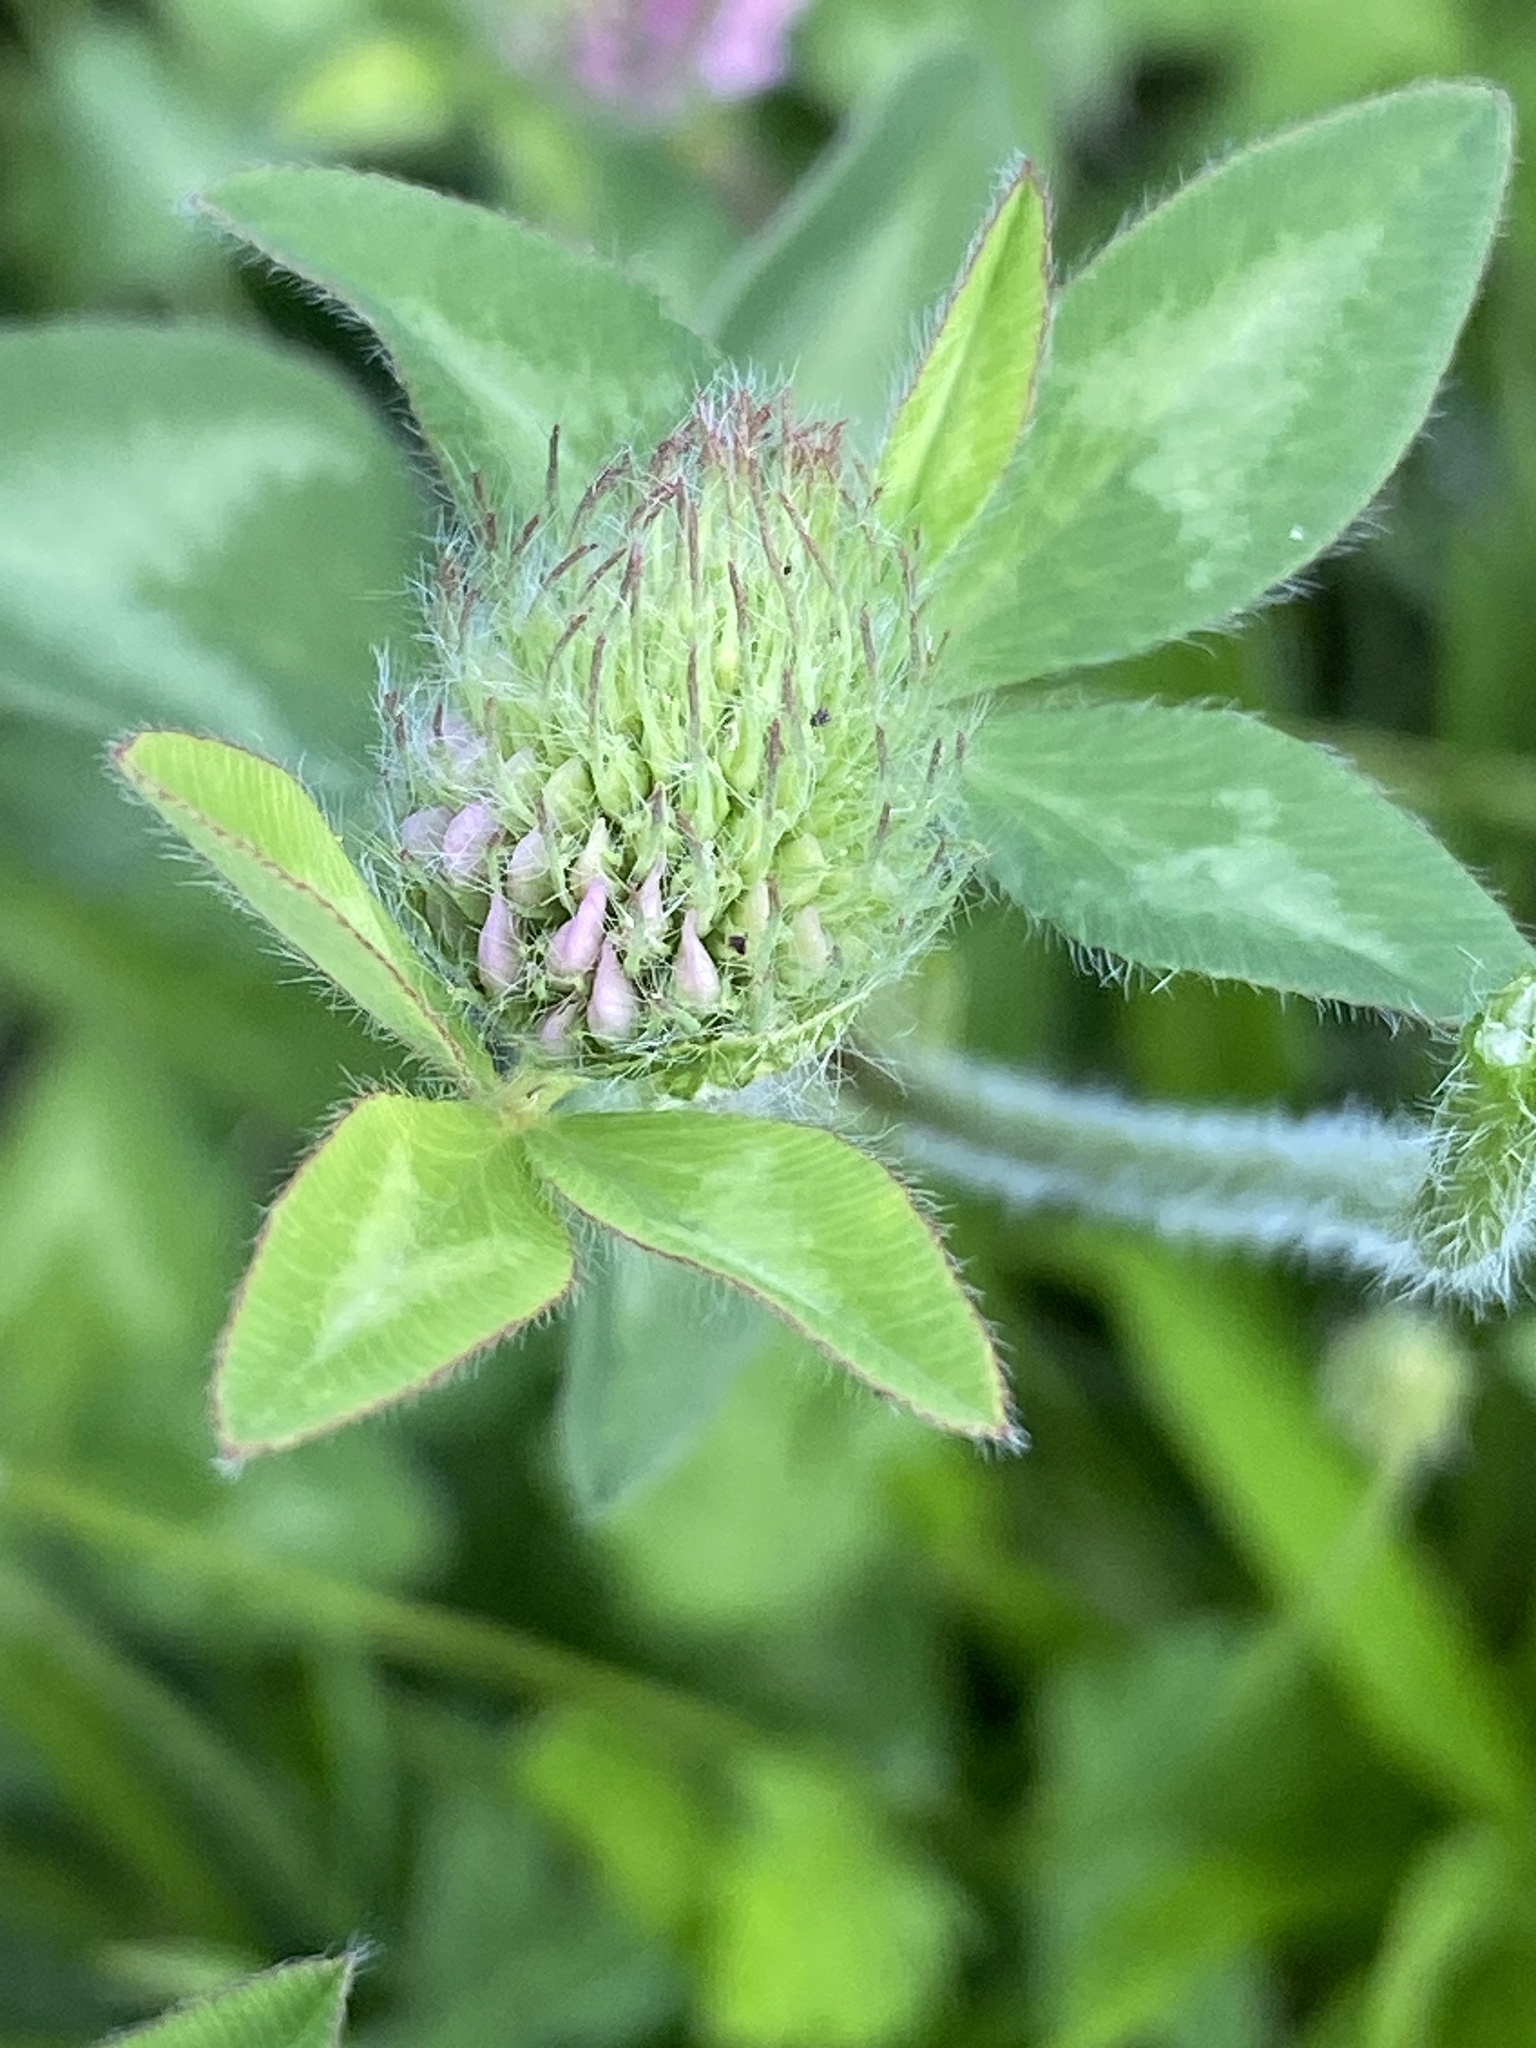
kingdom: Plantae
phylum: Tracheophyta
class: Magnoliopsida
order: Fabales
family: Fabaceae
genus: Trifolium
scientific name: Trifolium pratense
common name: Red clover
